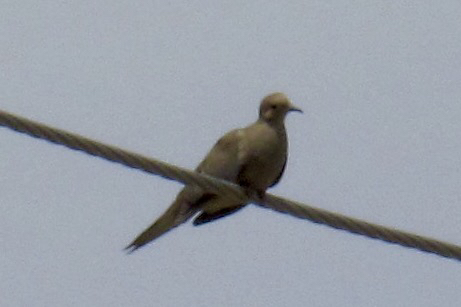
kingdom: Animalia
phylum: Chordata
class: Aves
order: Columbiformes
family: Columbidae
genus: Zenaida
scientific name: Zenaida macroura
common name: Mourning dove
